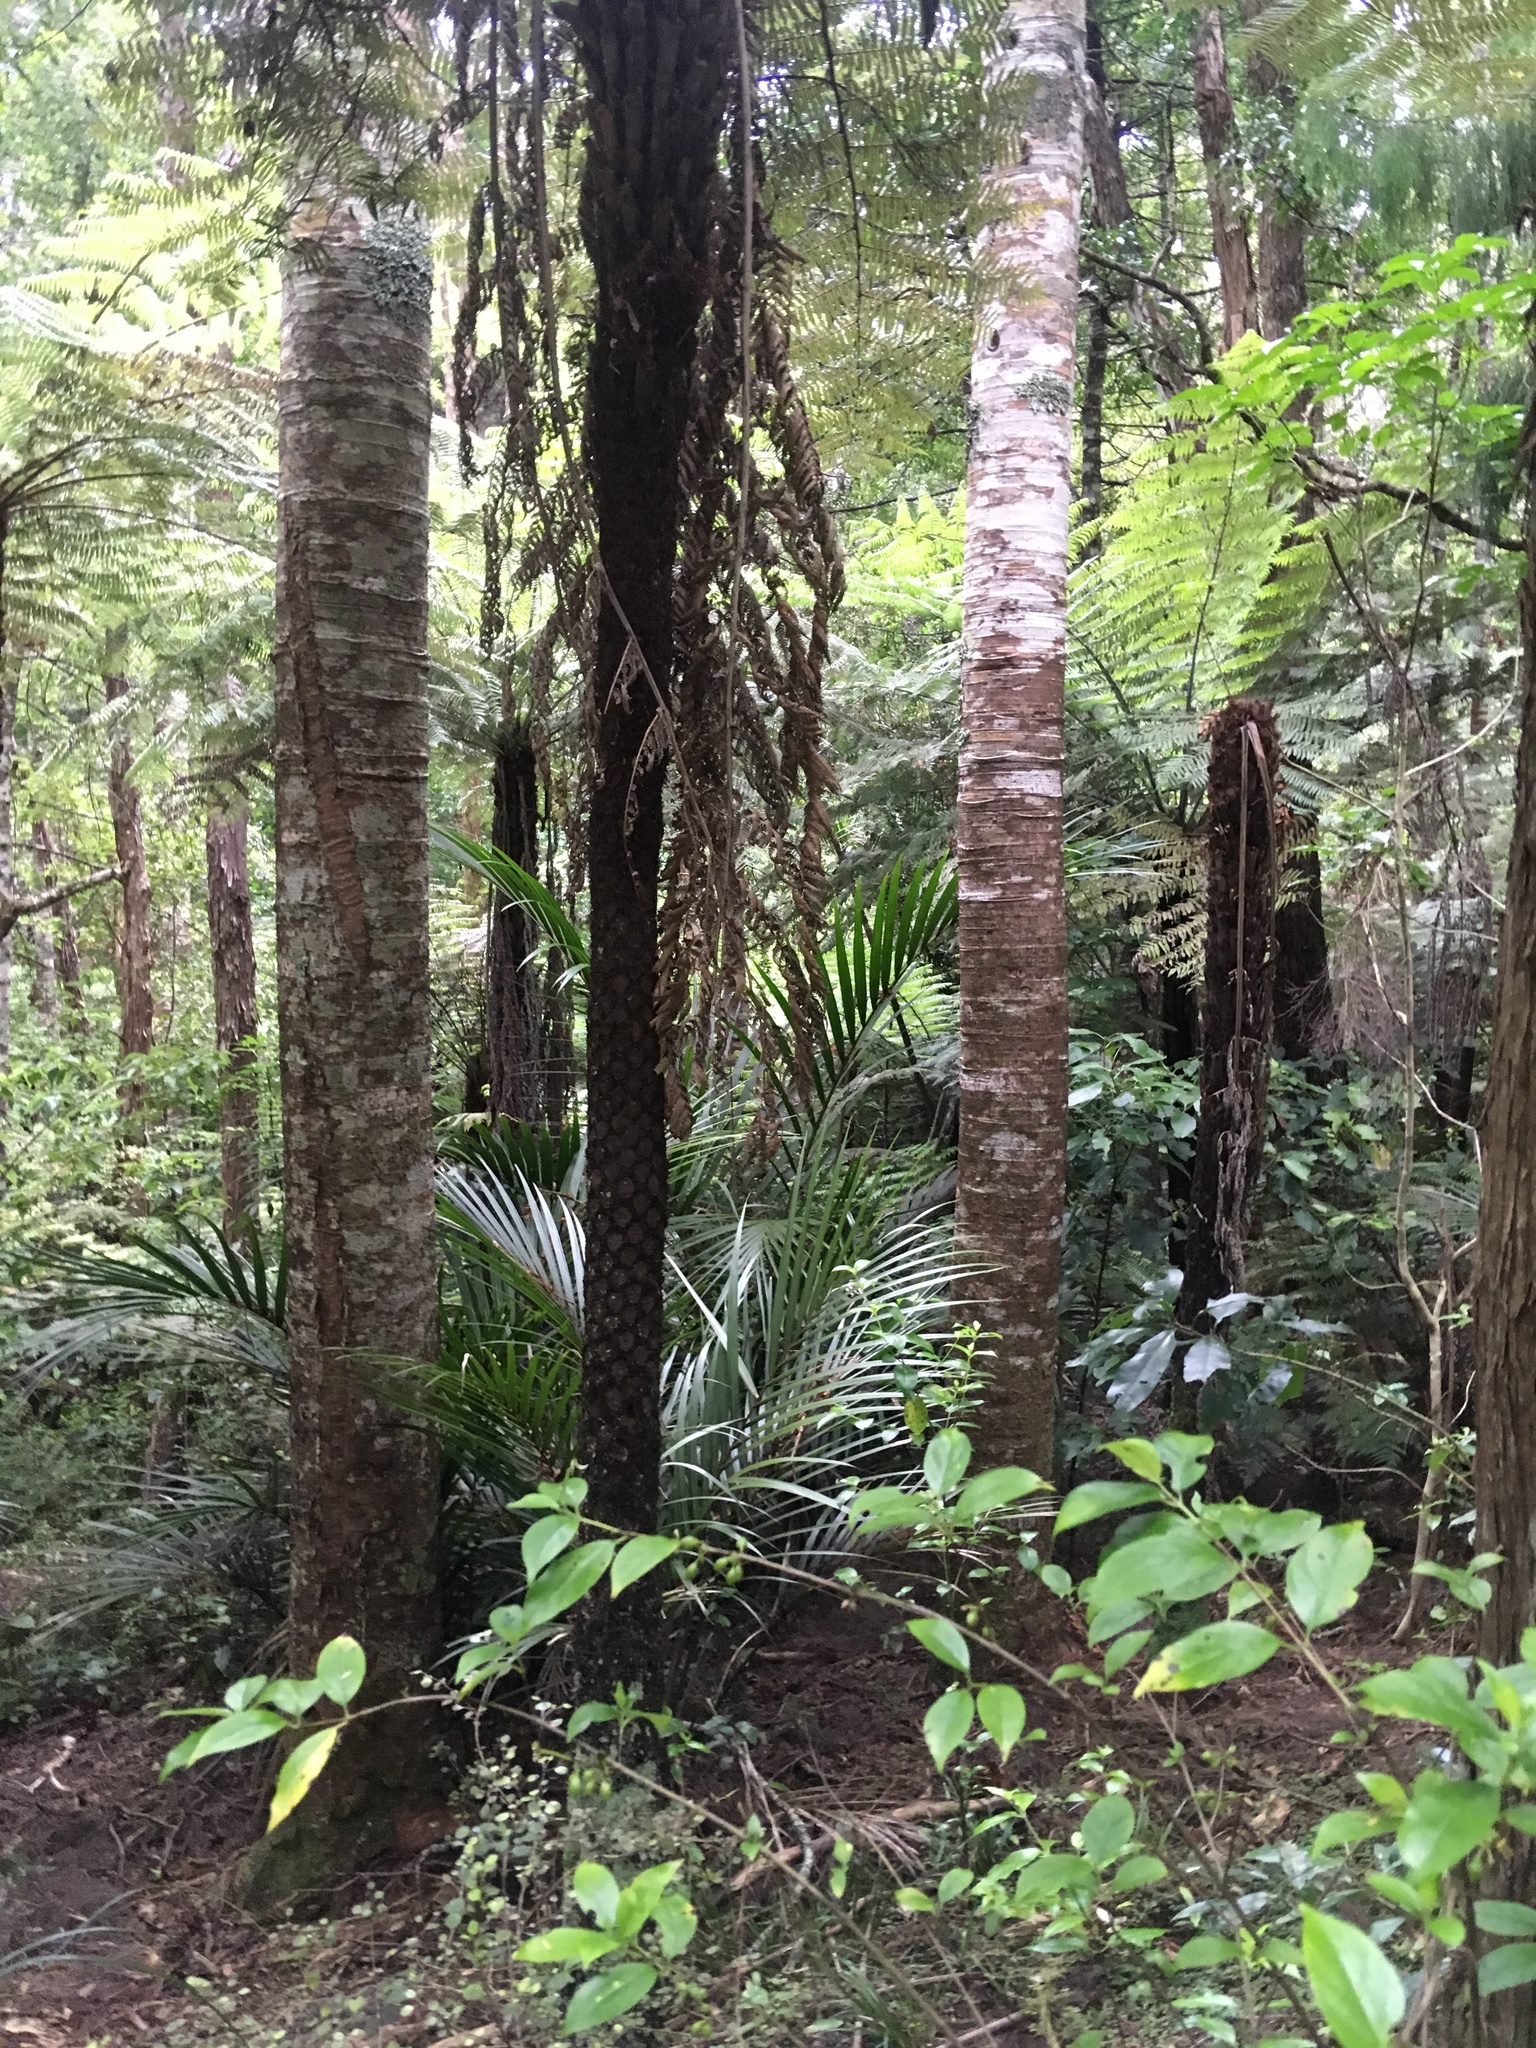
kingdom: Plantae
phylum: Tracheophyta
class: Pinopsida
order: Pinales
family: Araucariaceae
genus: Agathis
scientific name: Agathis australis
